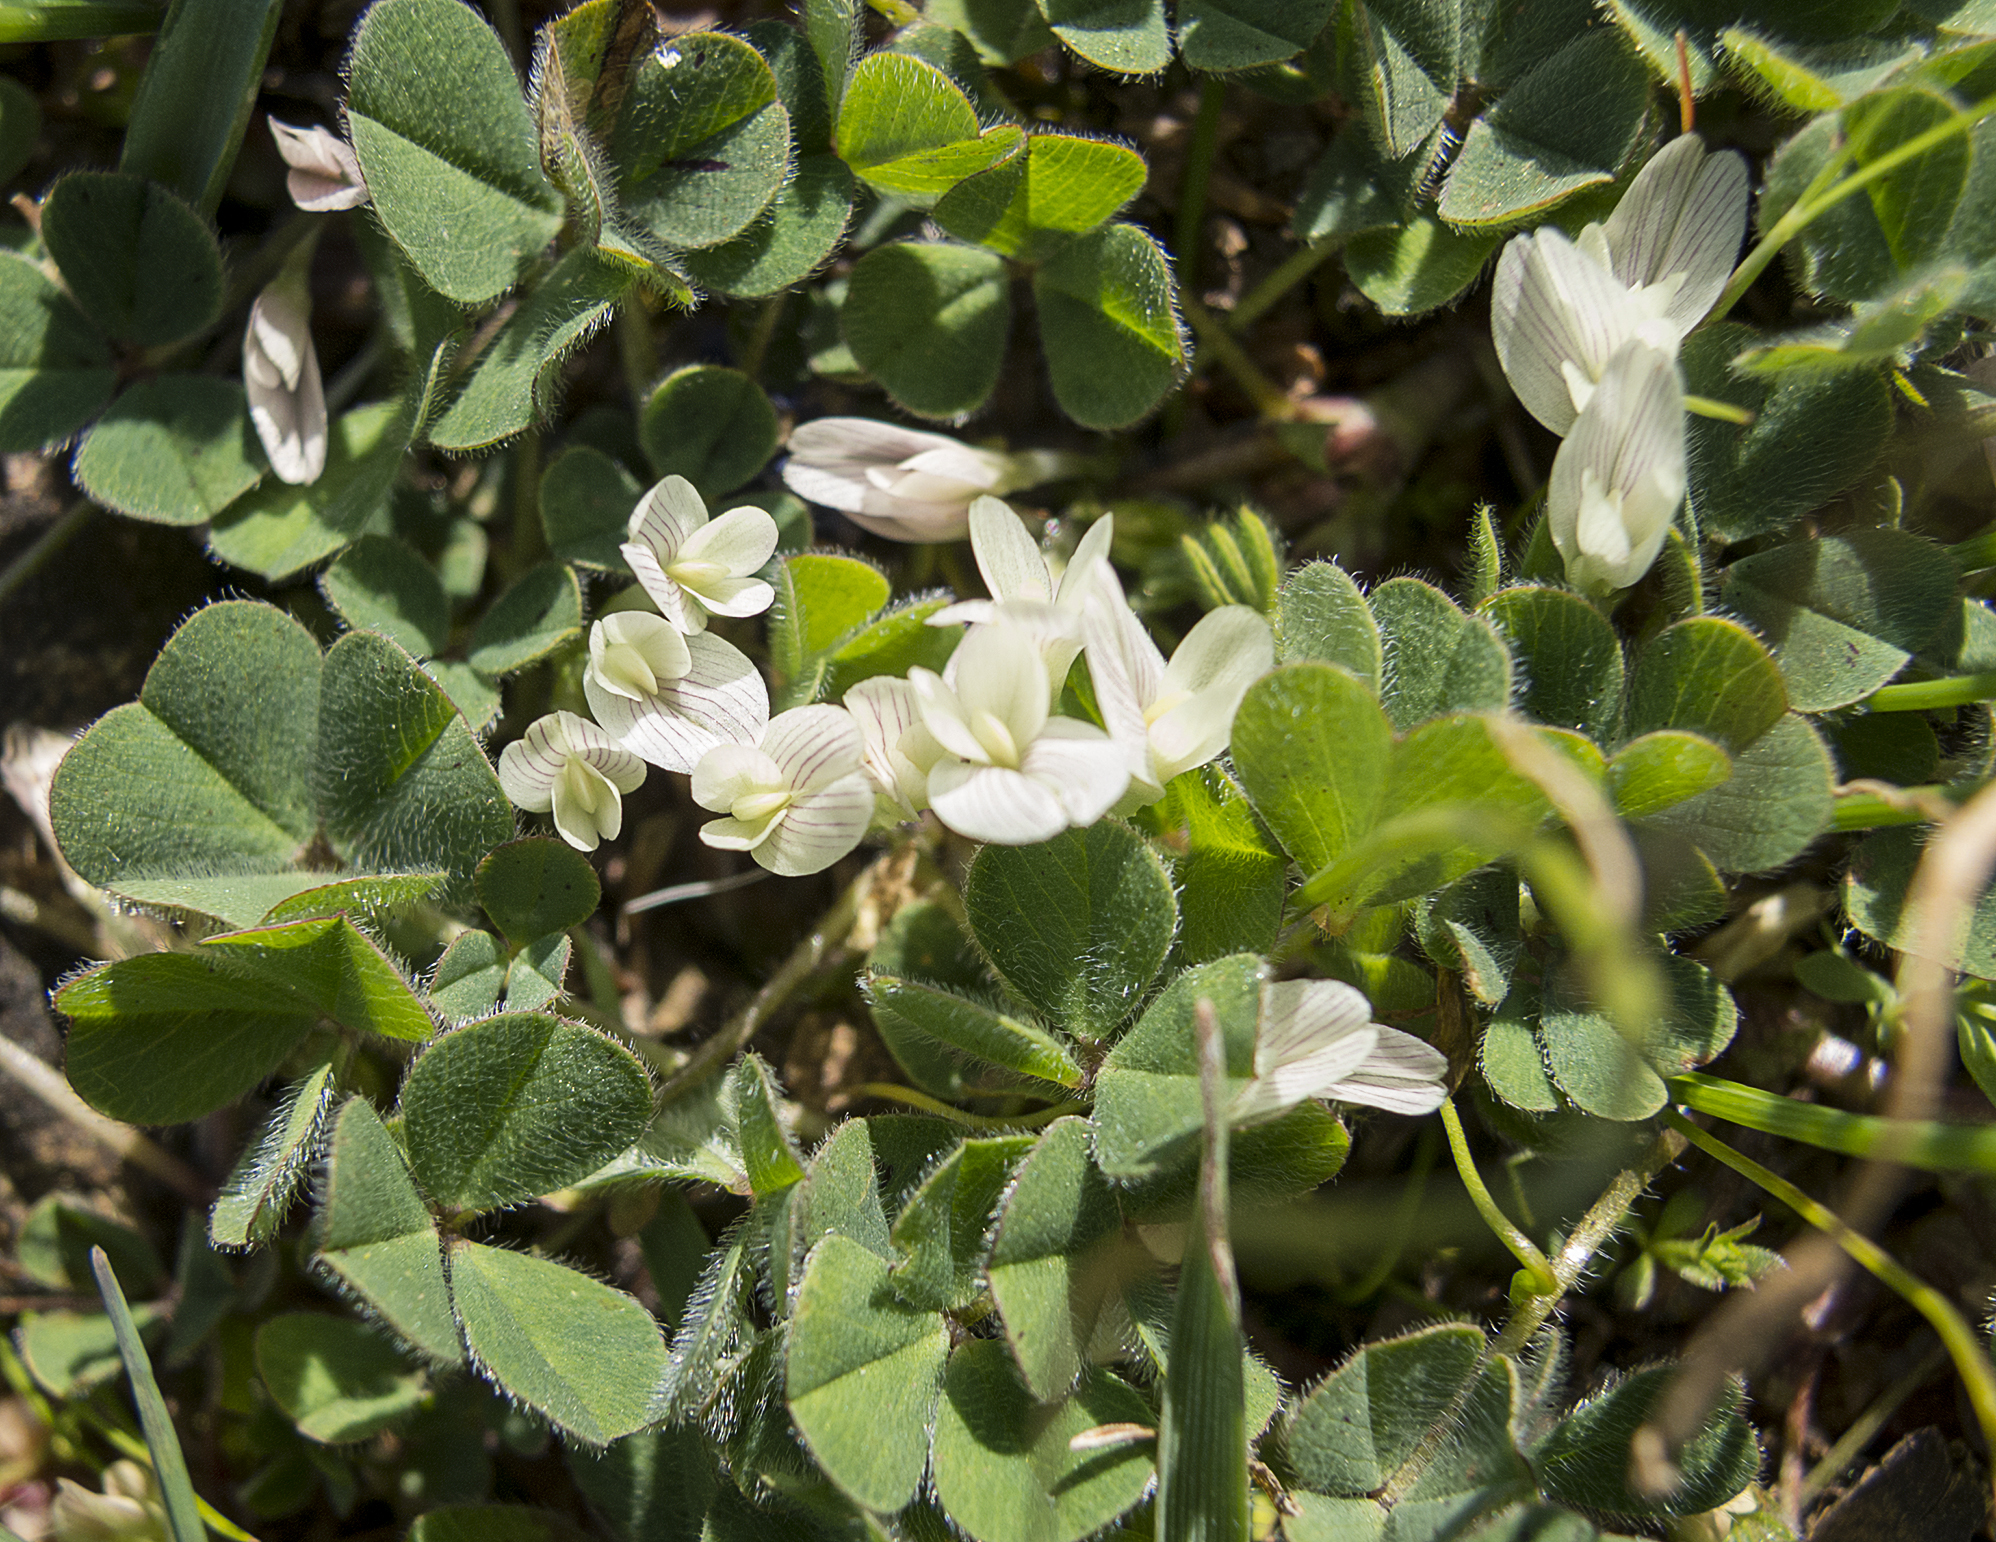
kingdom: Plantae
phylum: Tracheophyta
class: Magnoliopsida
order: Fabales
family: Fabaceae
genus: Trifolium
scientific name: Trifolium subterraneum
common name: Subterranean clover
